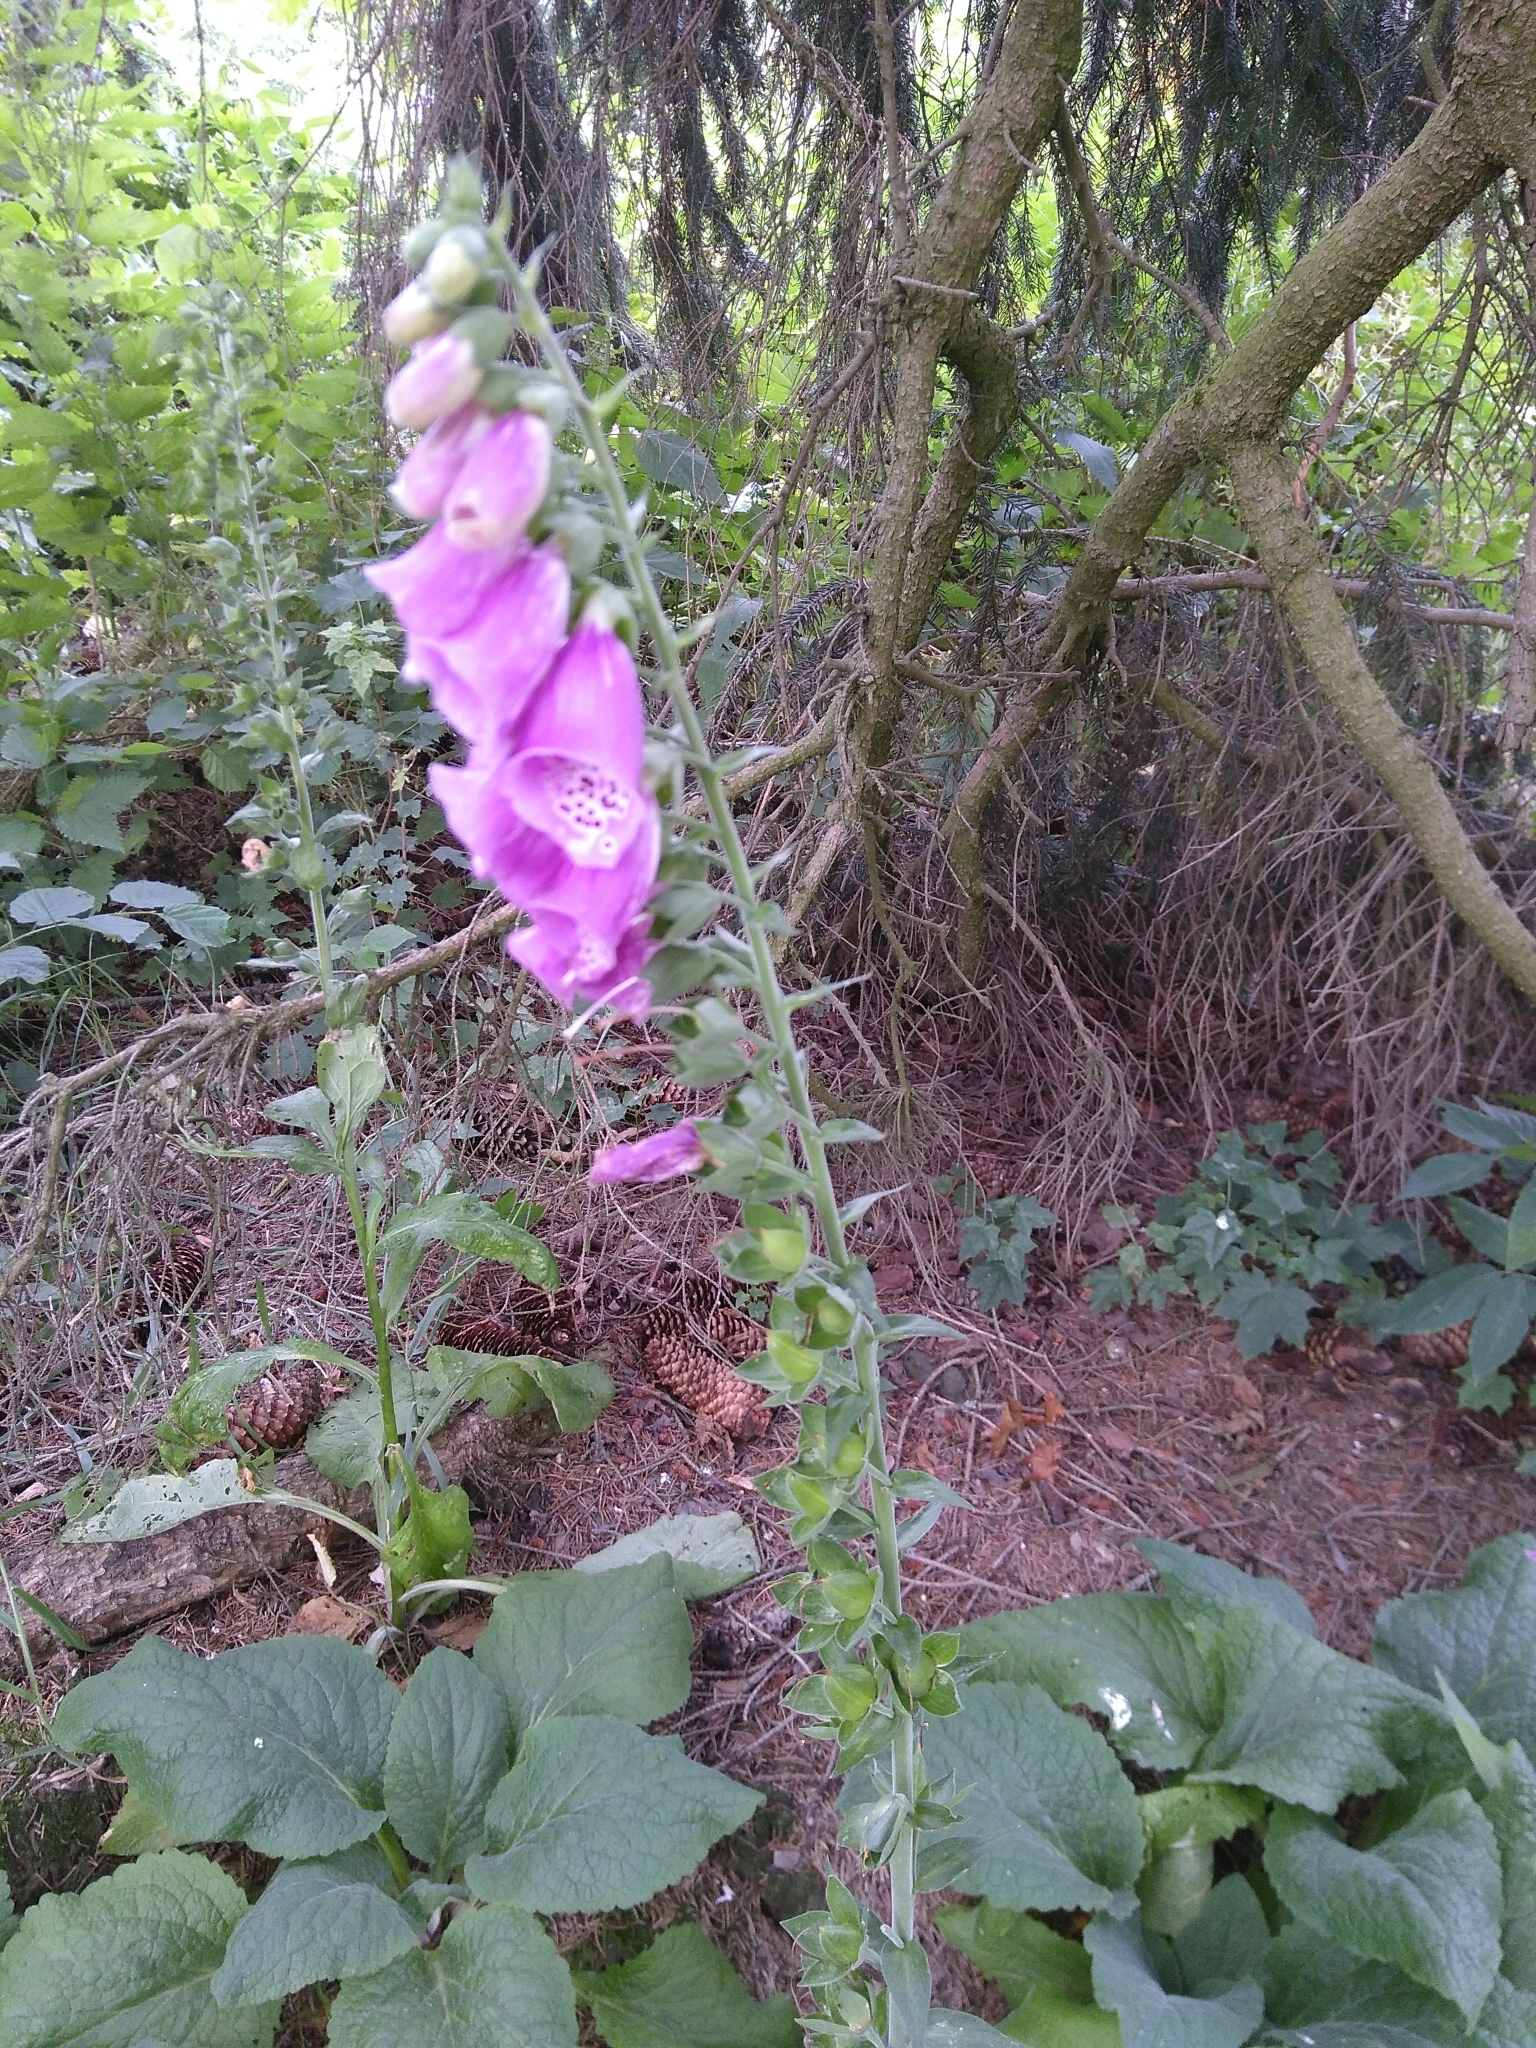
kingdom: Plantae
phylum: Tracheophyta
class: Magnoliopsida
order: Lamiales
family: Plantaginaceae
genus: Digitalis
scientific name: Digitalis purpurea
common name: Foxglove
